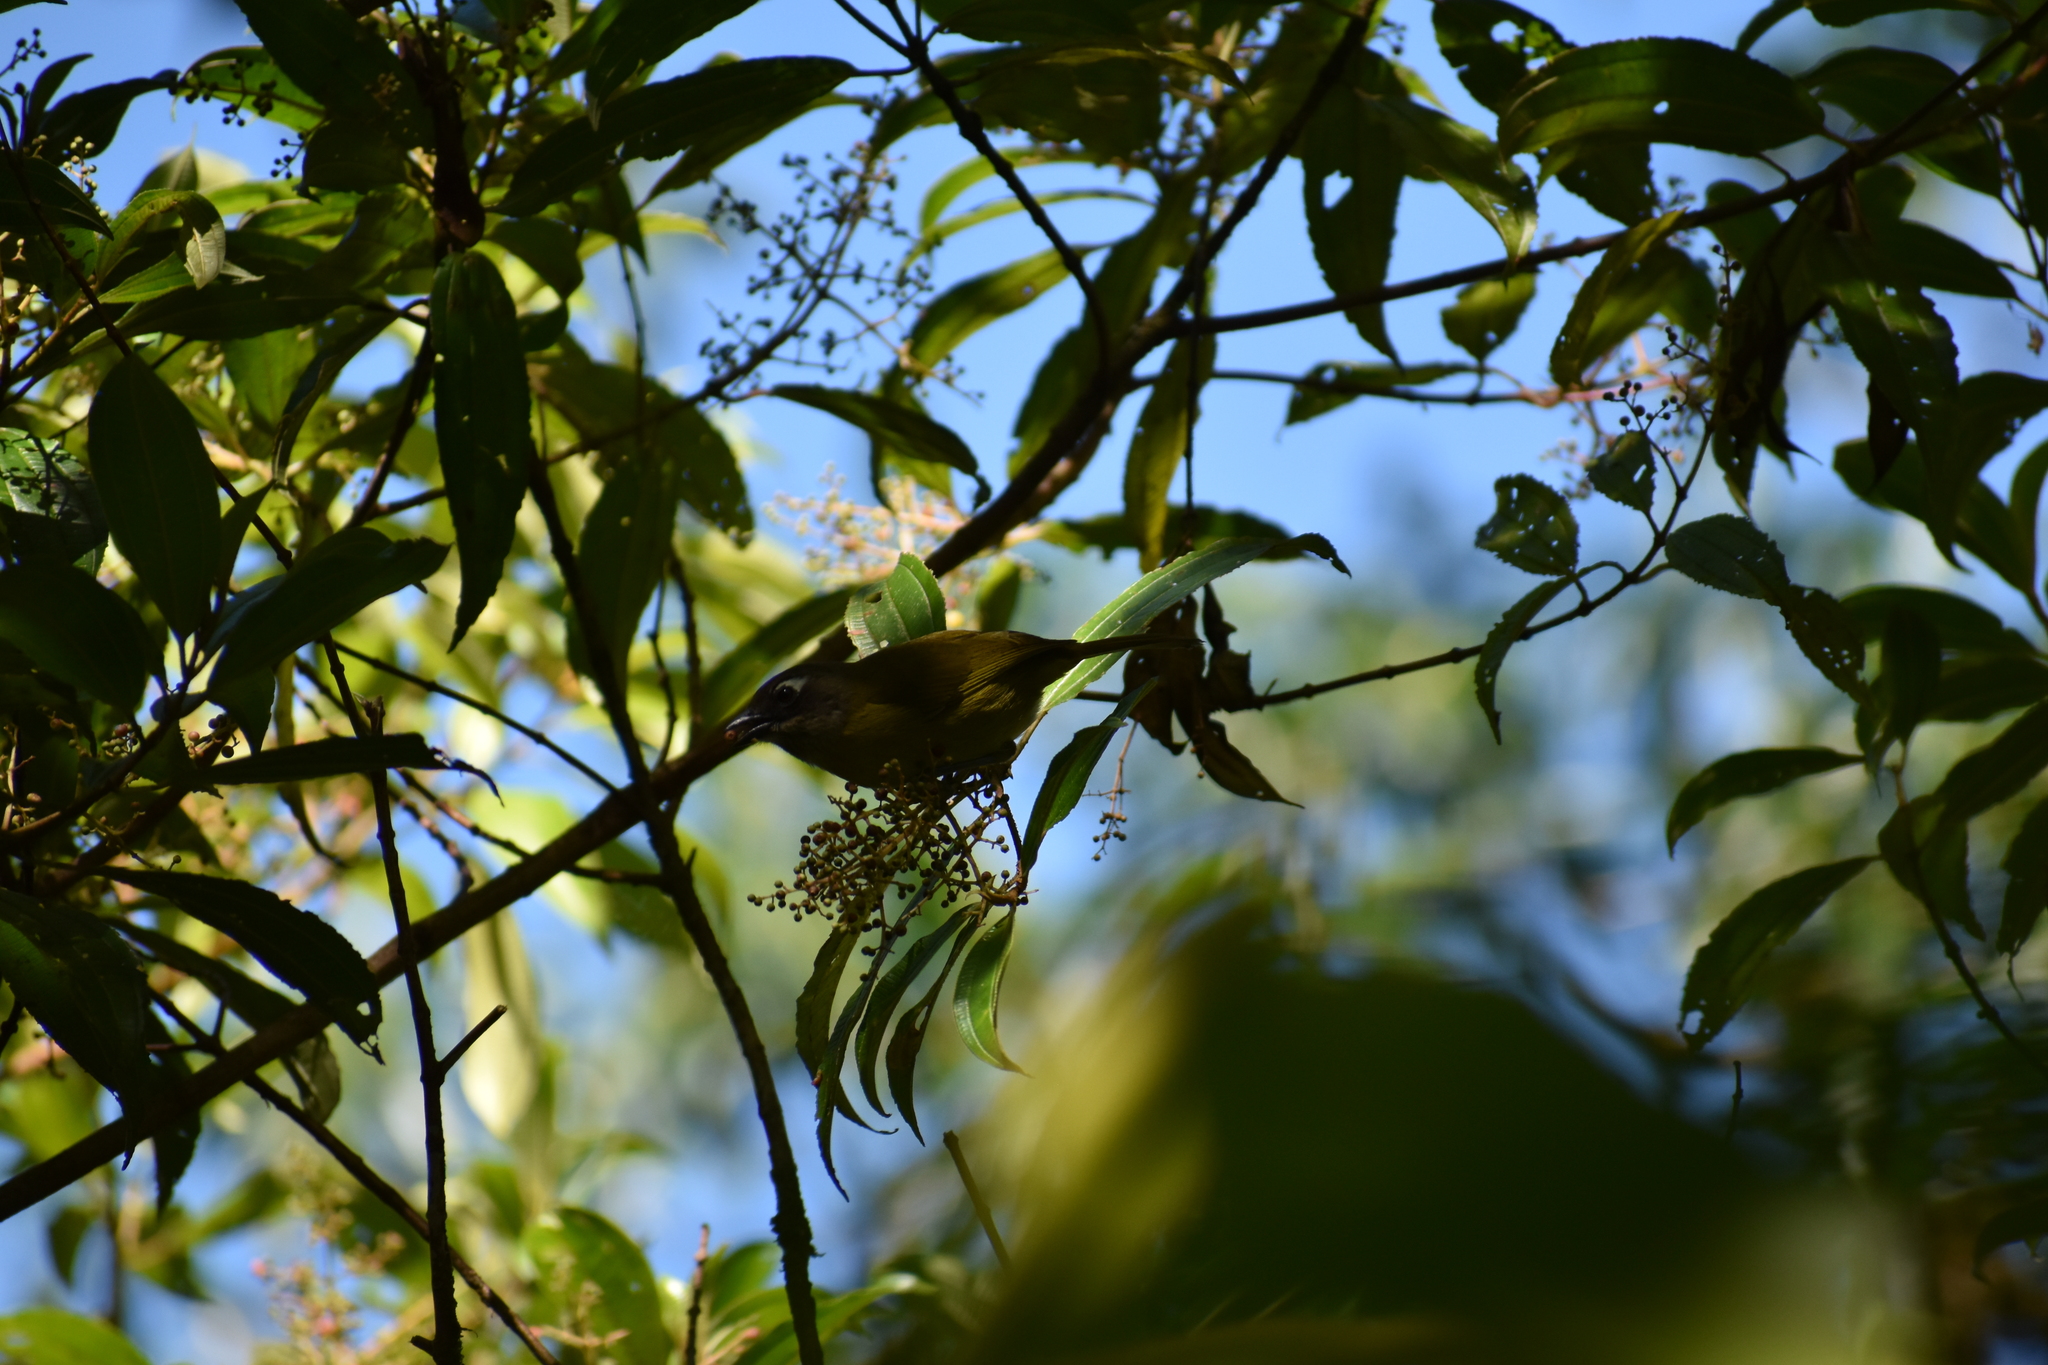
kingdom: Animalia
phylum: Chordata
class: Aves
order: Passeriformes
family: Passerellidae
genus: Chlorospingus
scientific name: Chlorospingus flavopectus
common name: Common chlorospingus
